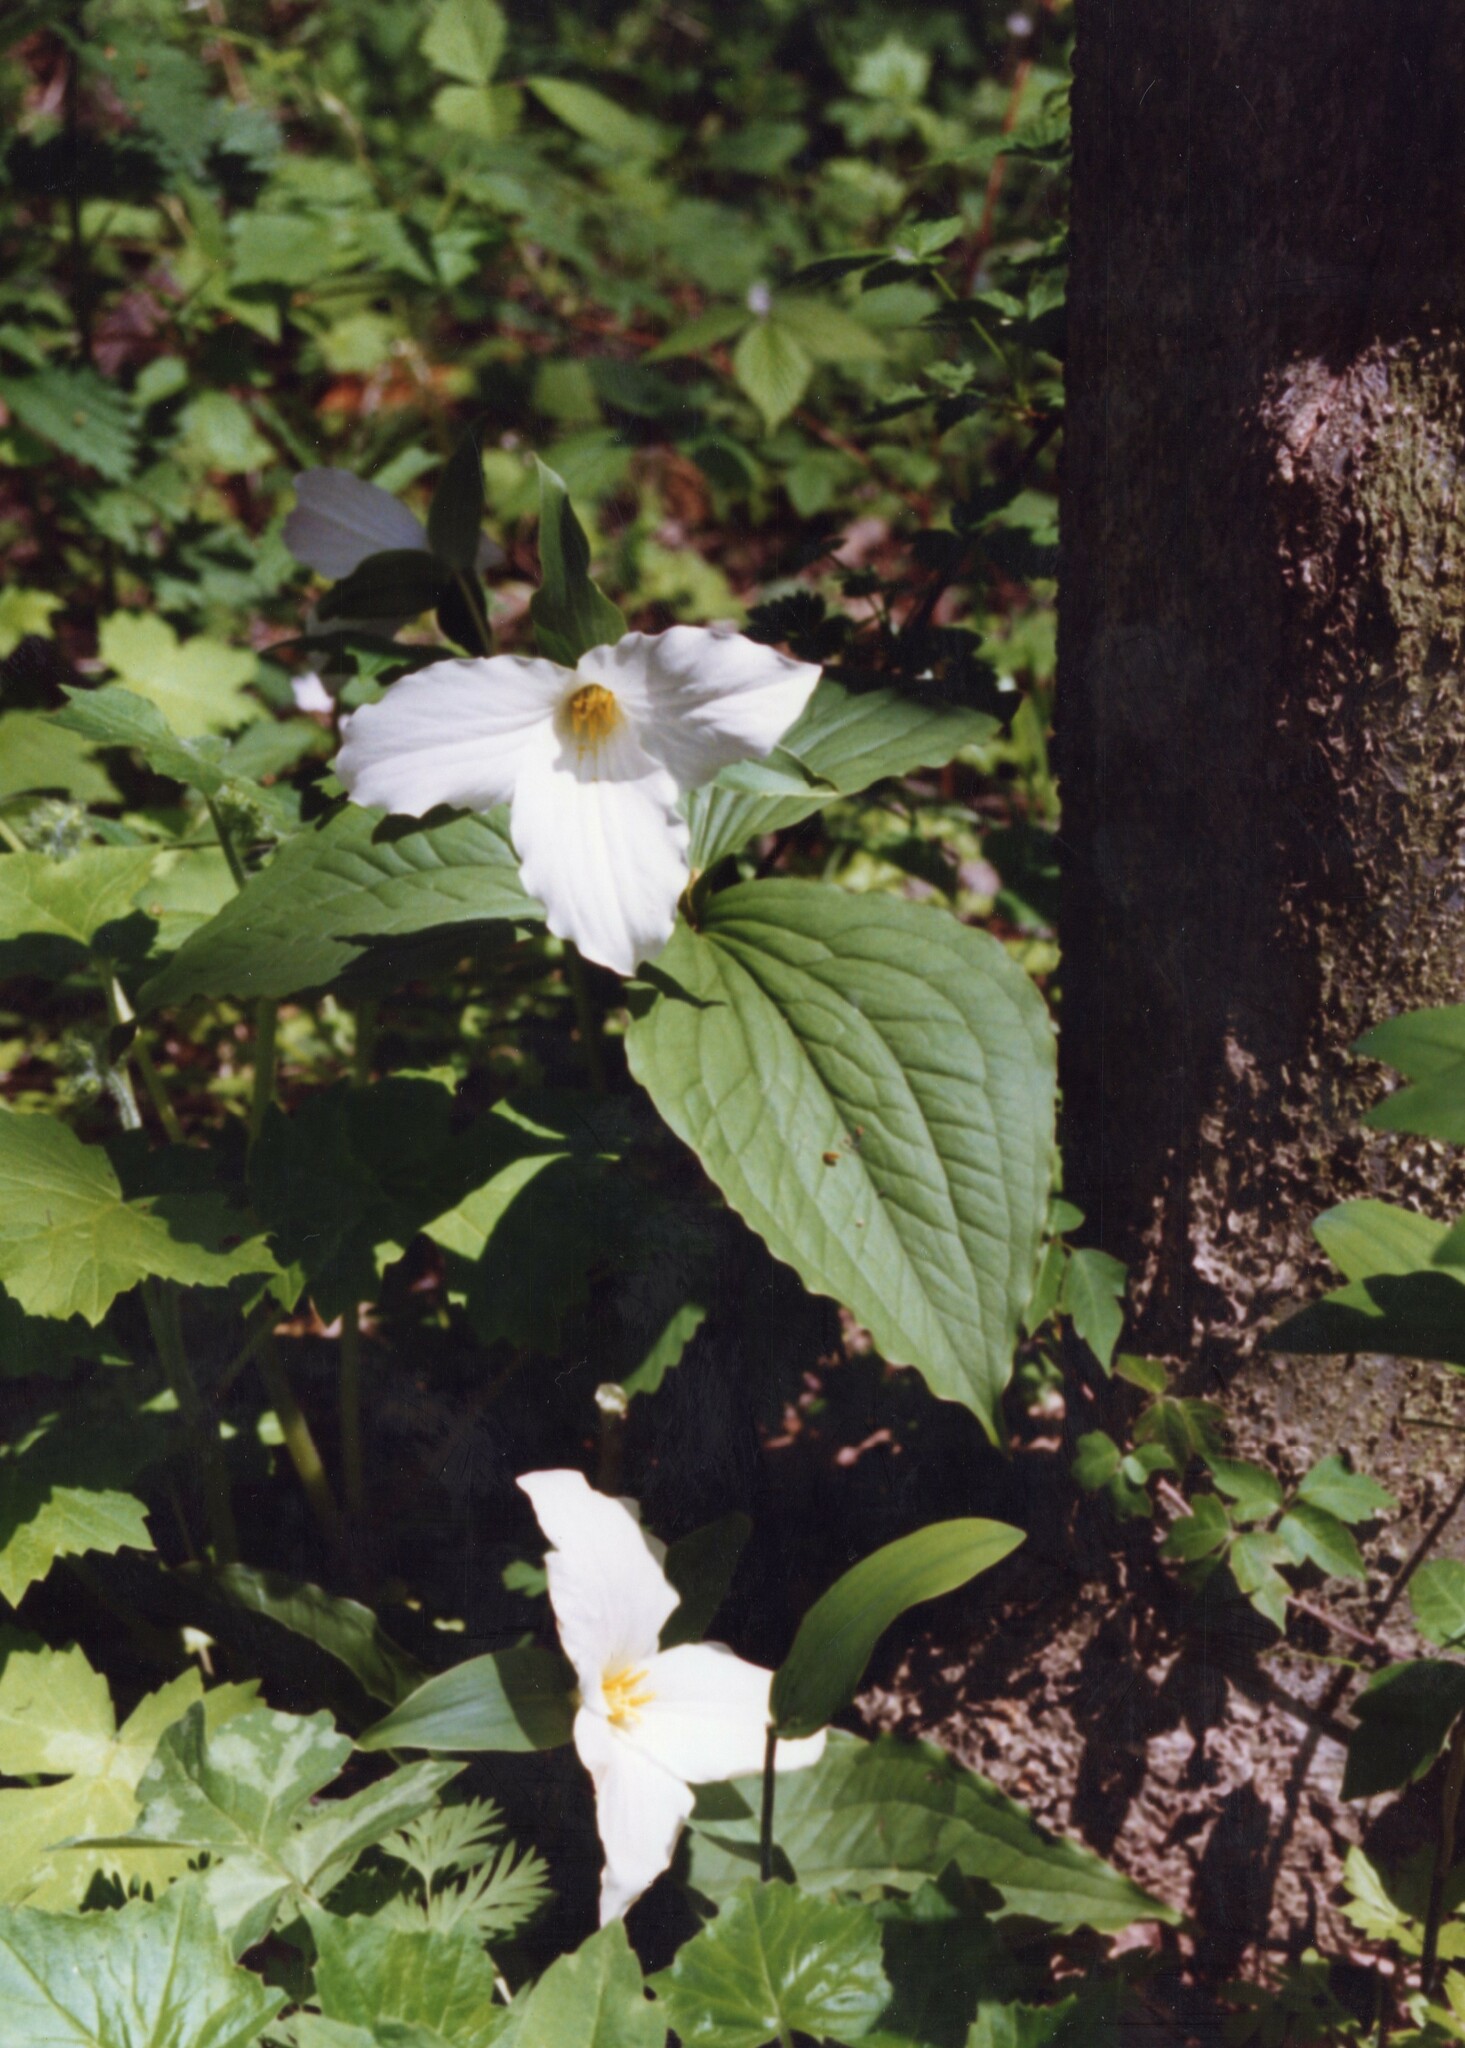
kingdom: Plantae
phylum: Tracheophyta
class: Liliopsida
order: Liliales
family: Melanthiaceae
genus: Trillium
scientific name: Trillium grandiflorum
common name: Great white trillium
